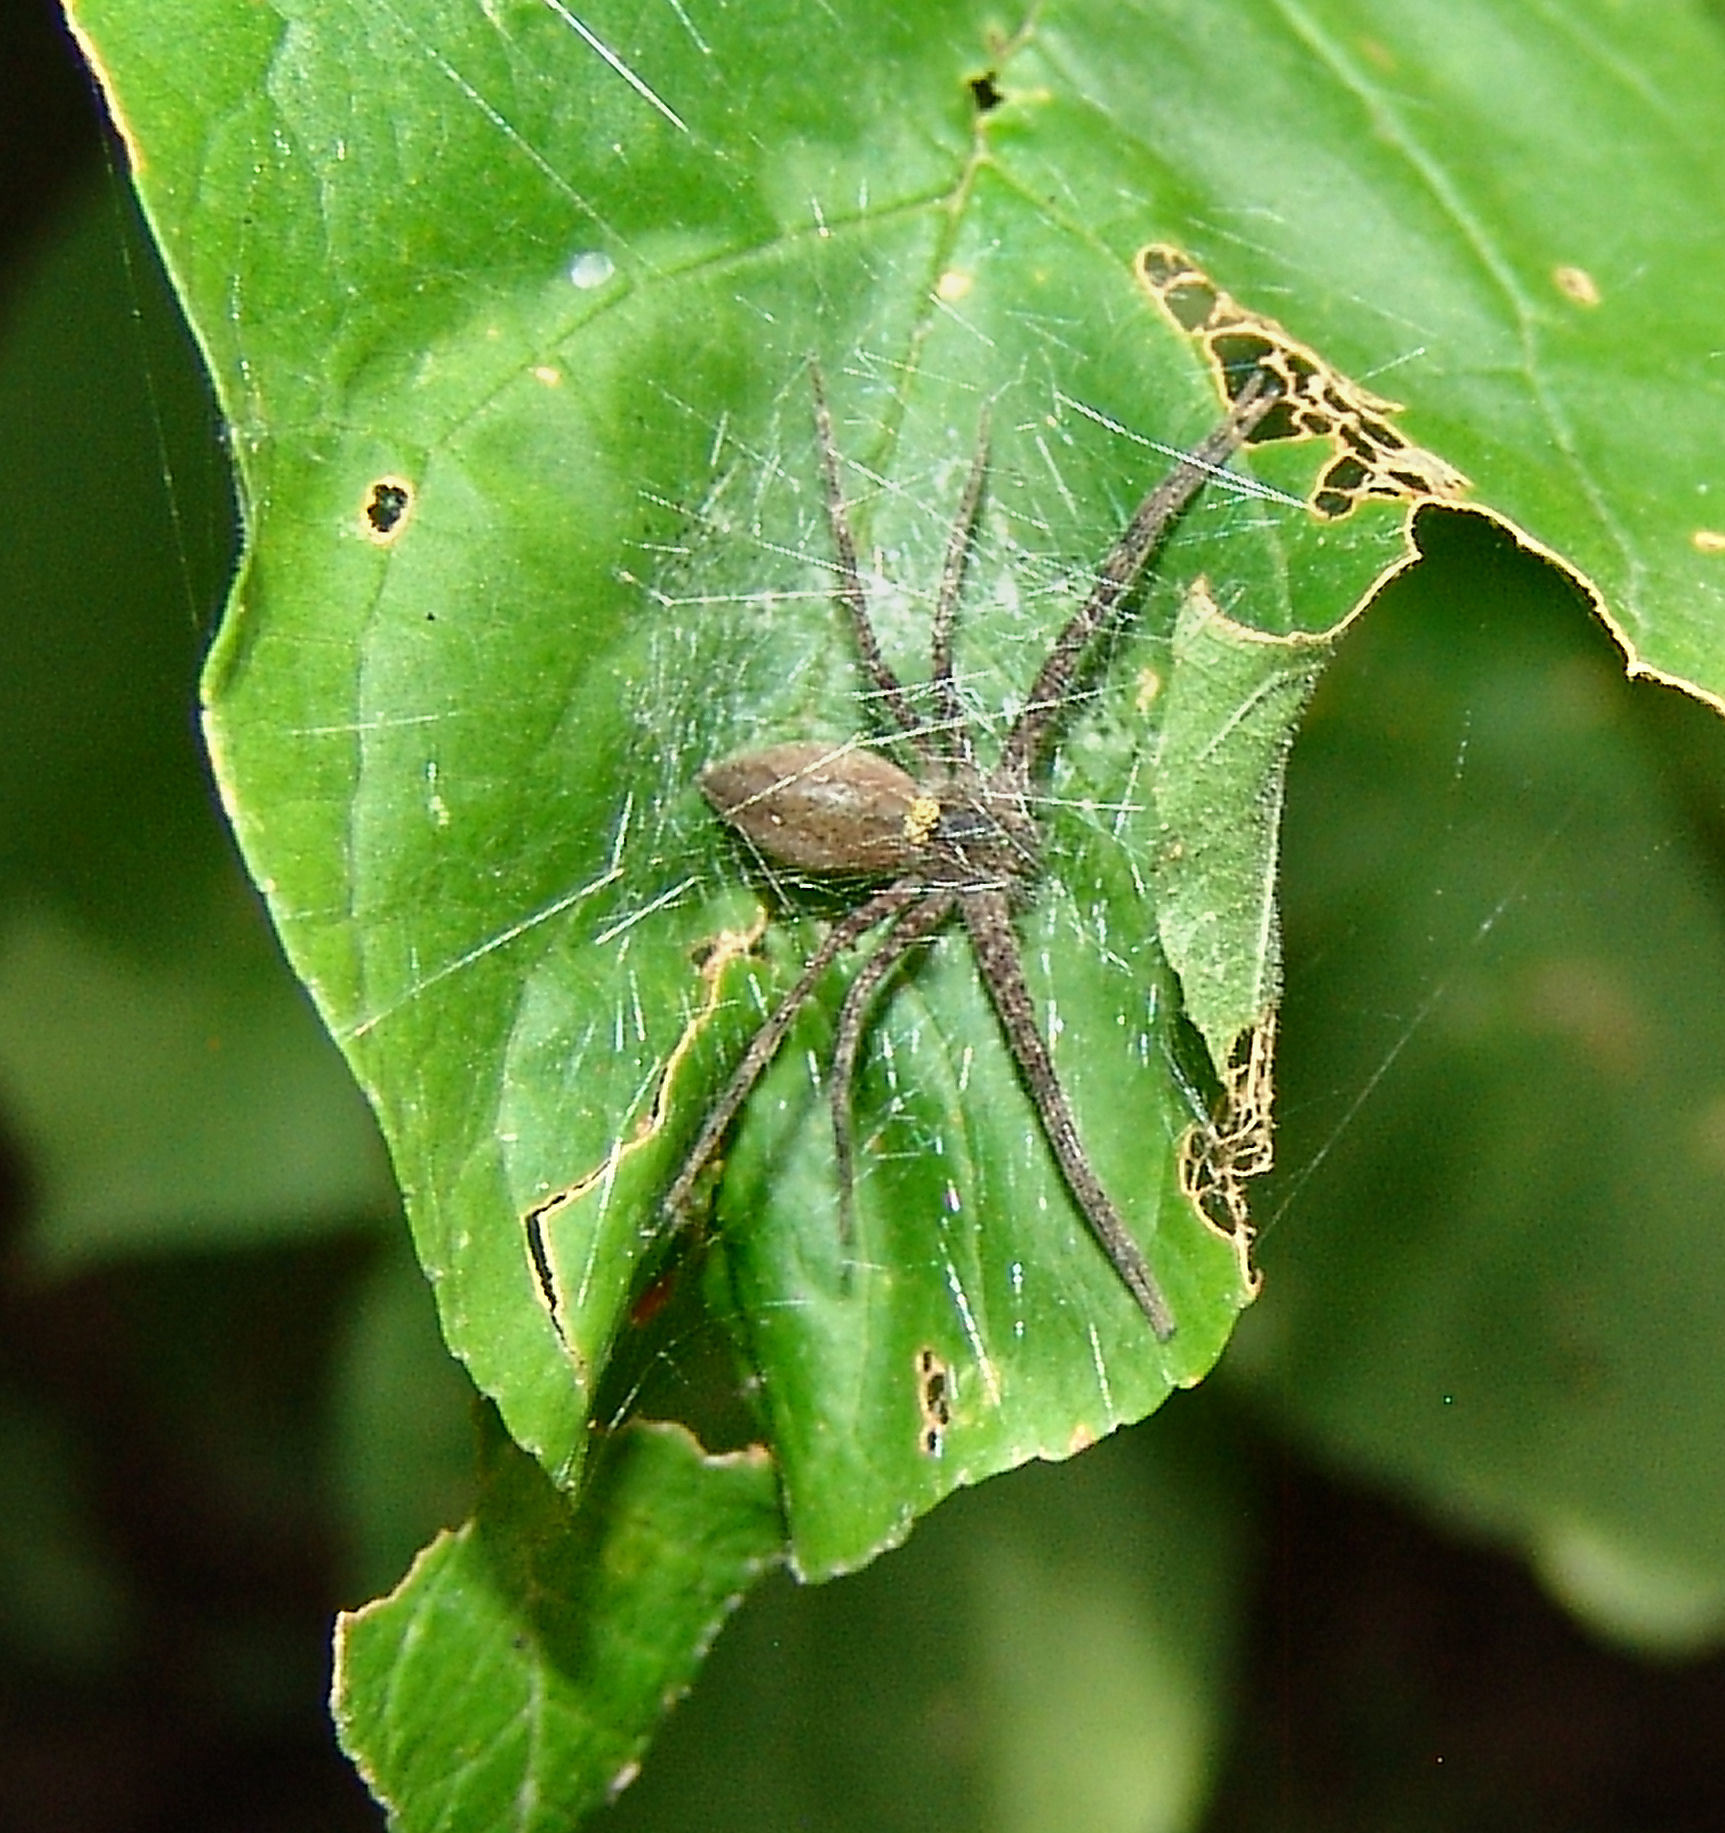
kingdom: Animalia
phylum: Arthropoda
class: Arachnida
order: Araneae
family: Pisauridae
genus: Pisaurina
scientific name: Pisaurina mira
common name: American nursery web spider
